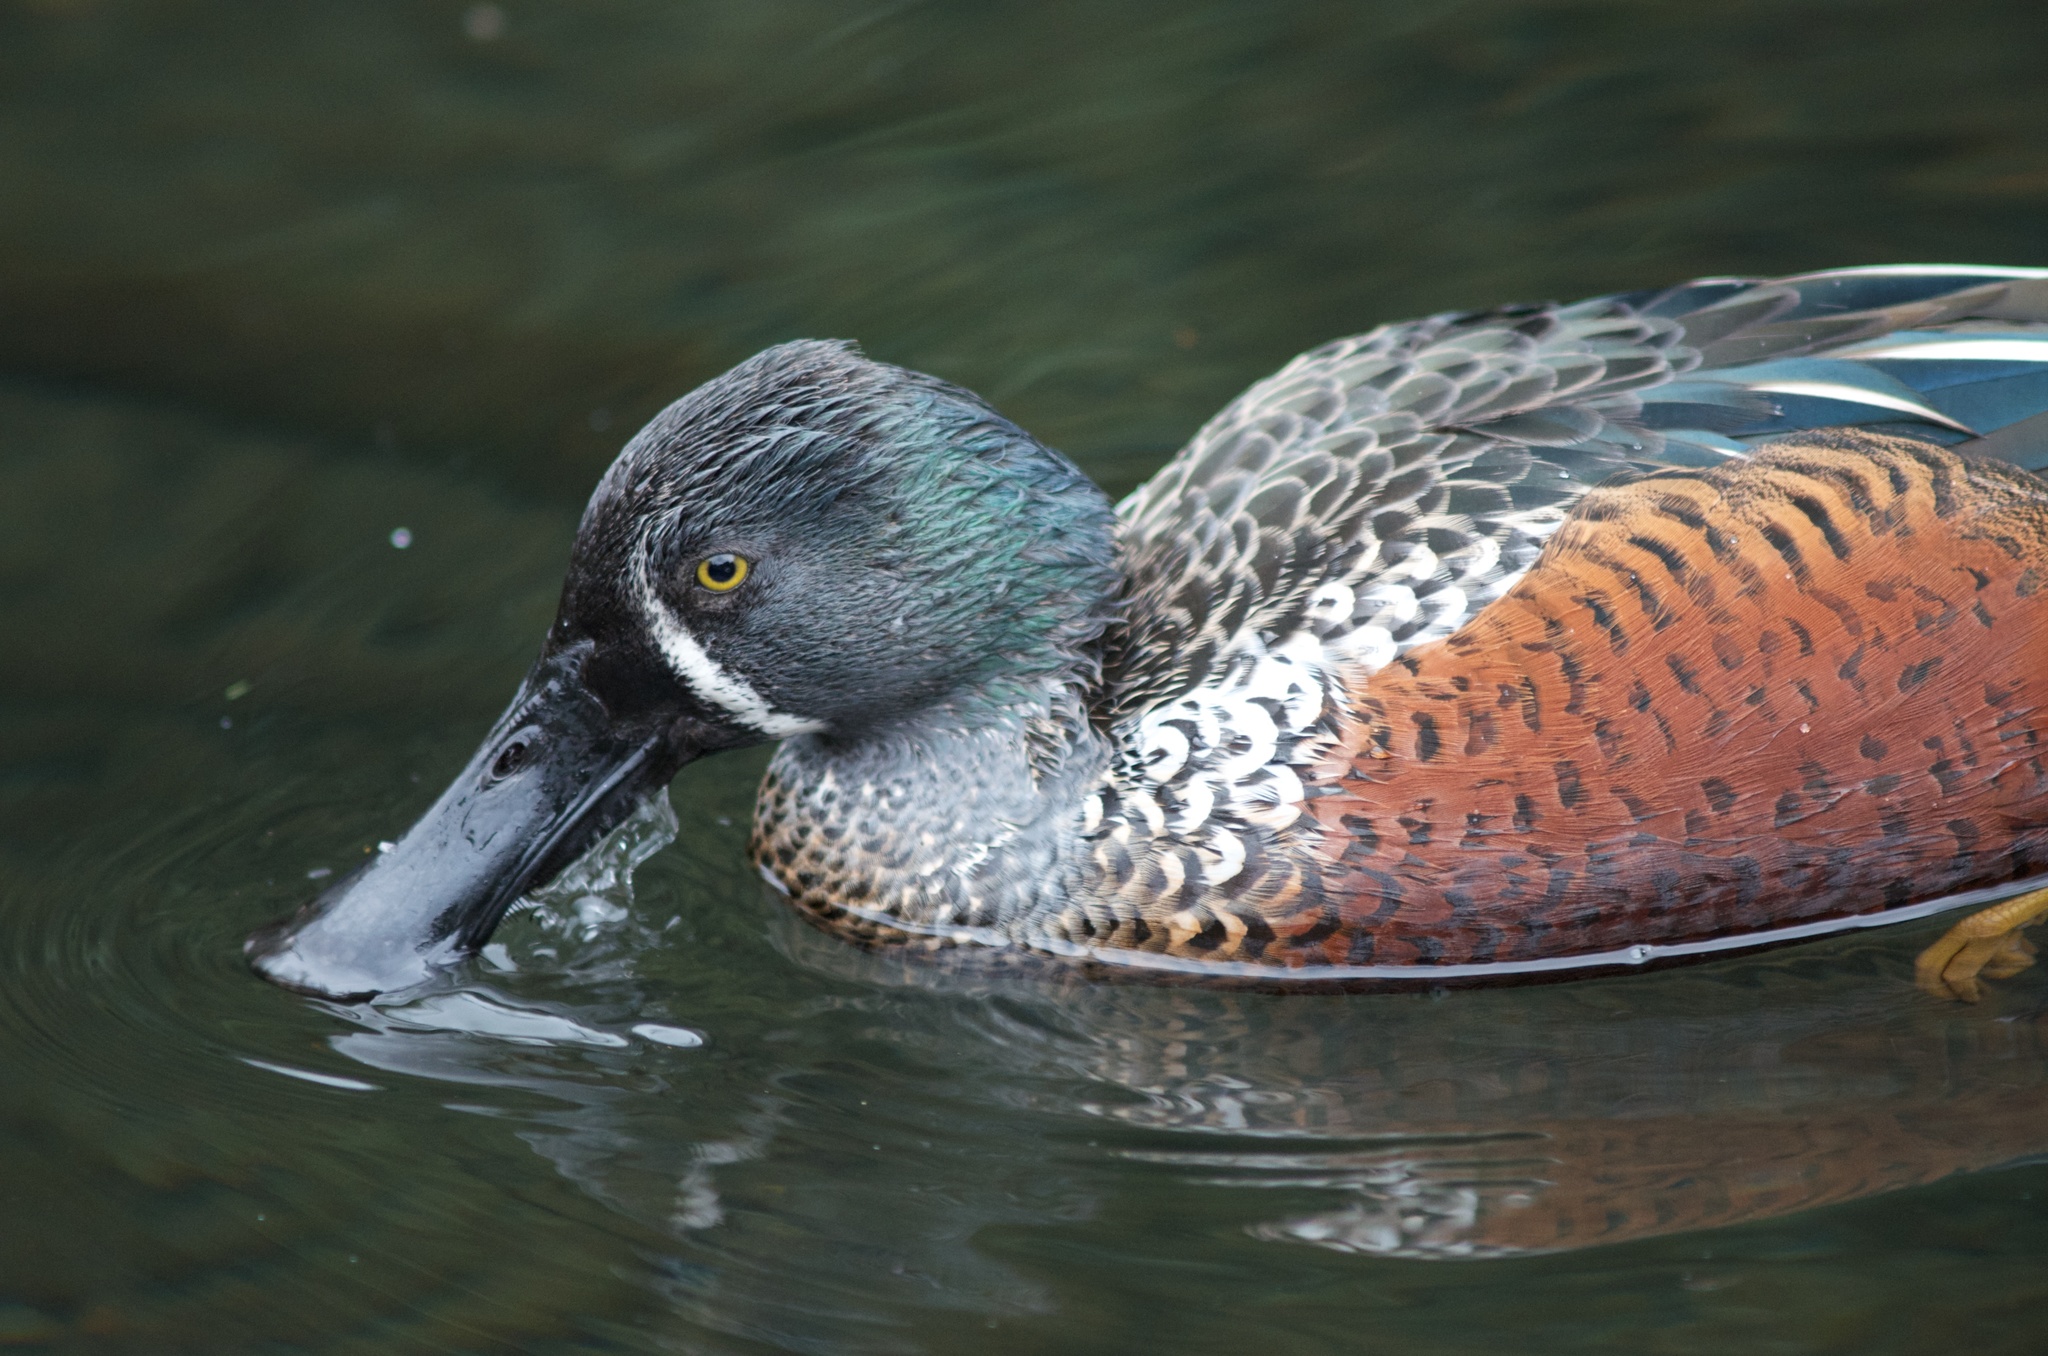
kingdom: Animalia
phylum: Chordata
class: Aves
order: Anseriformes
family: Anatidae
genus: Spatula
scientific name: Spatula rhynchotis
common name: Australian shoveler
